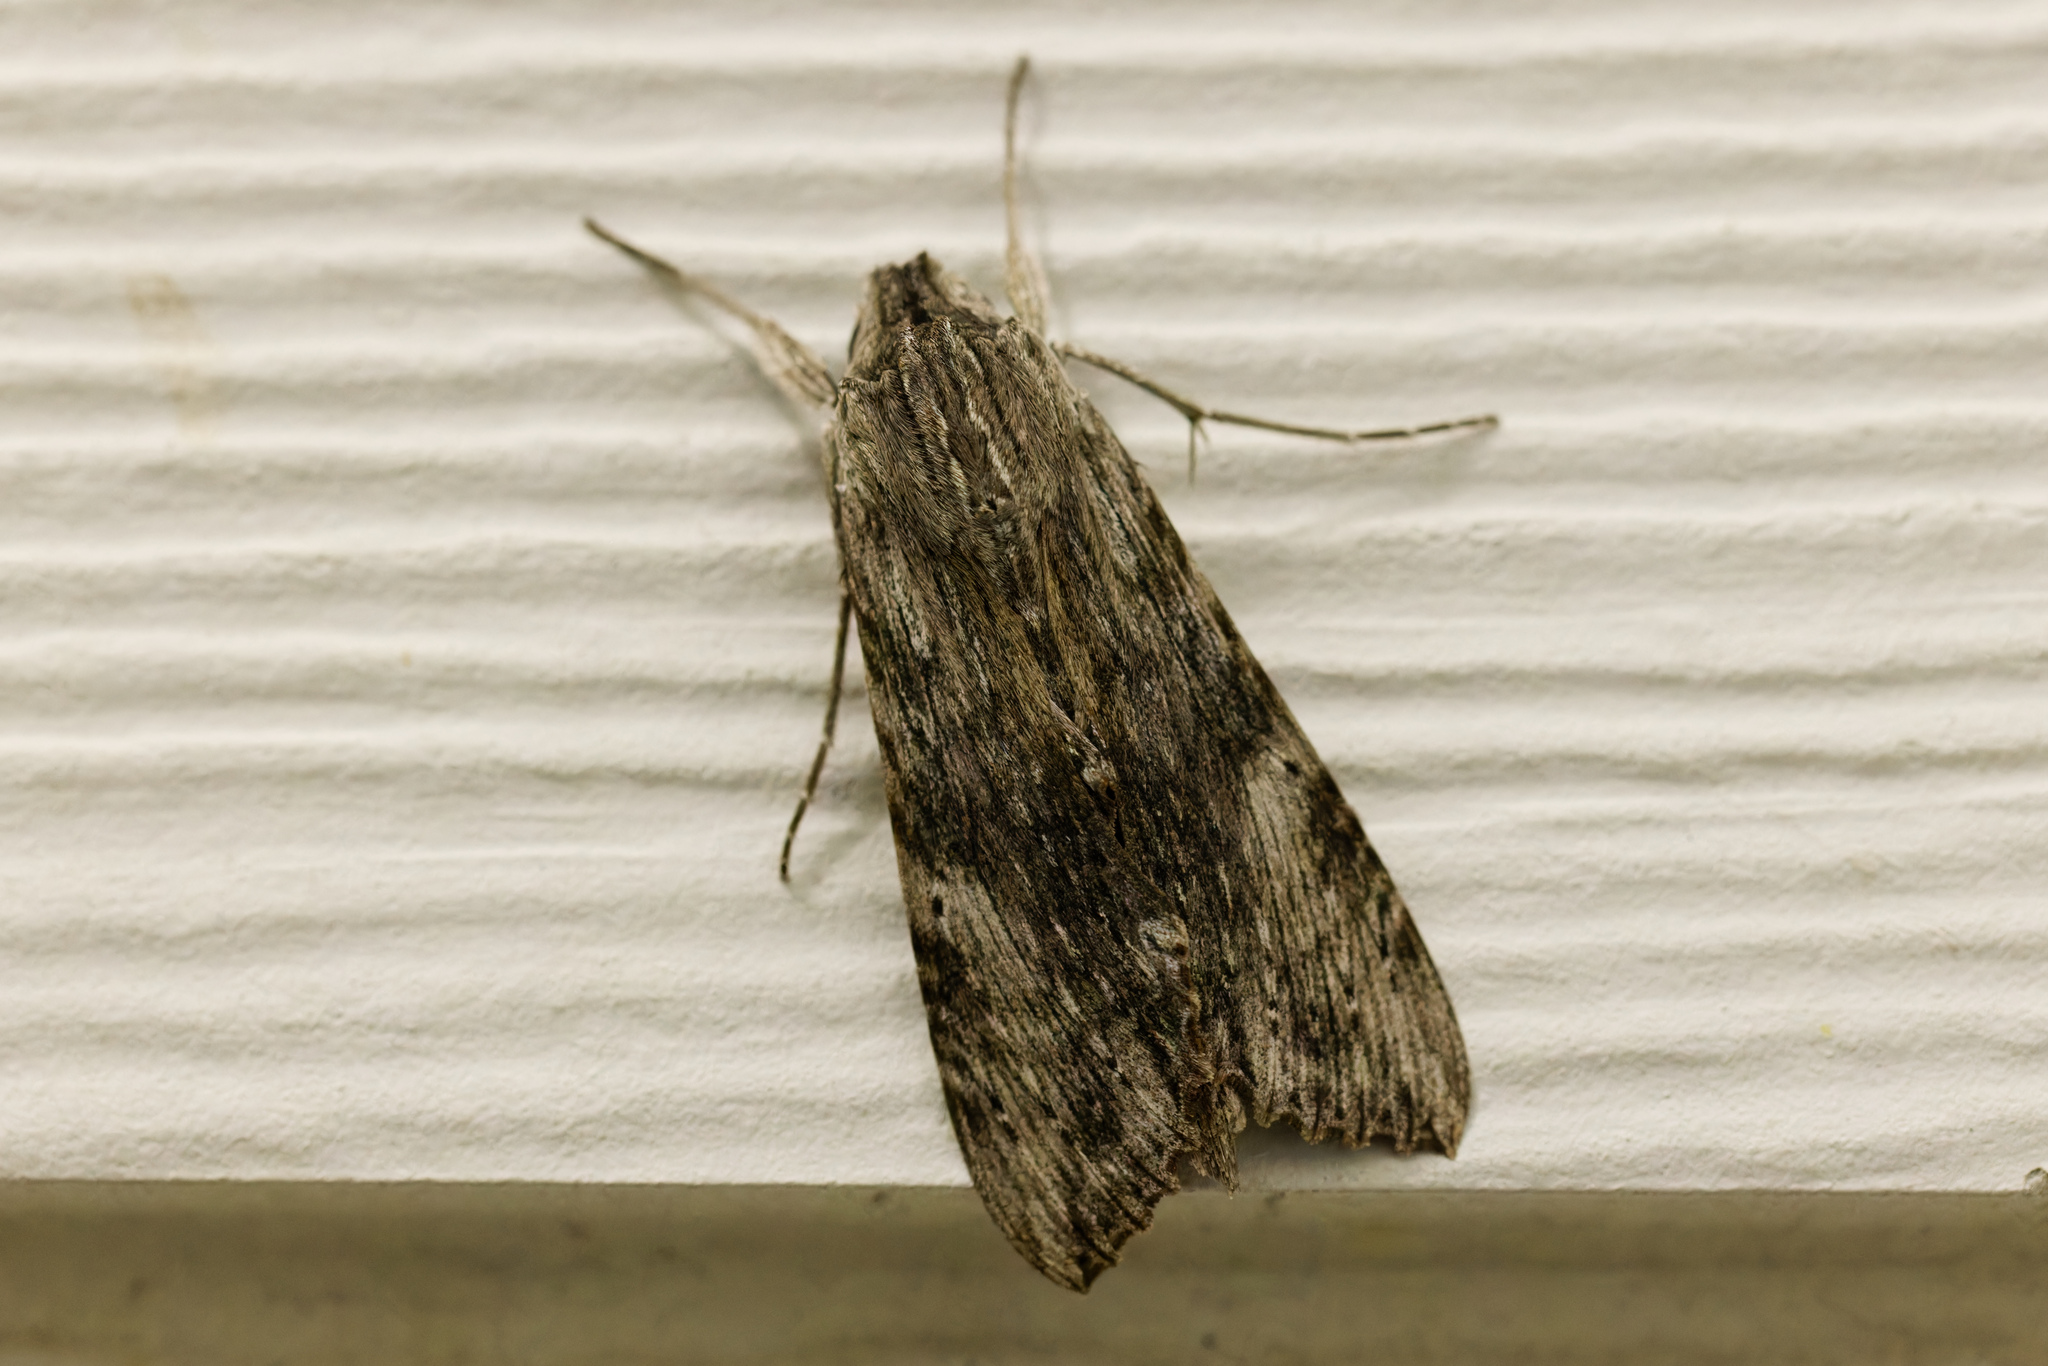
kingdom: Animalia
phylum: Arthropoda
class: Insecta
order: Lepidoptera
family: Sphingidae
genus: Erinnyis
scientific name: Erinnyis obscura
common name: Obscure sphinx
